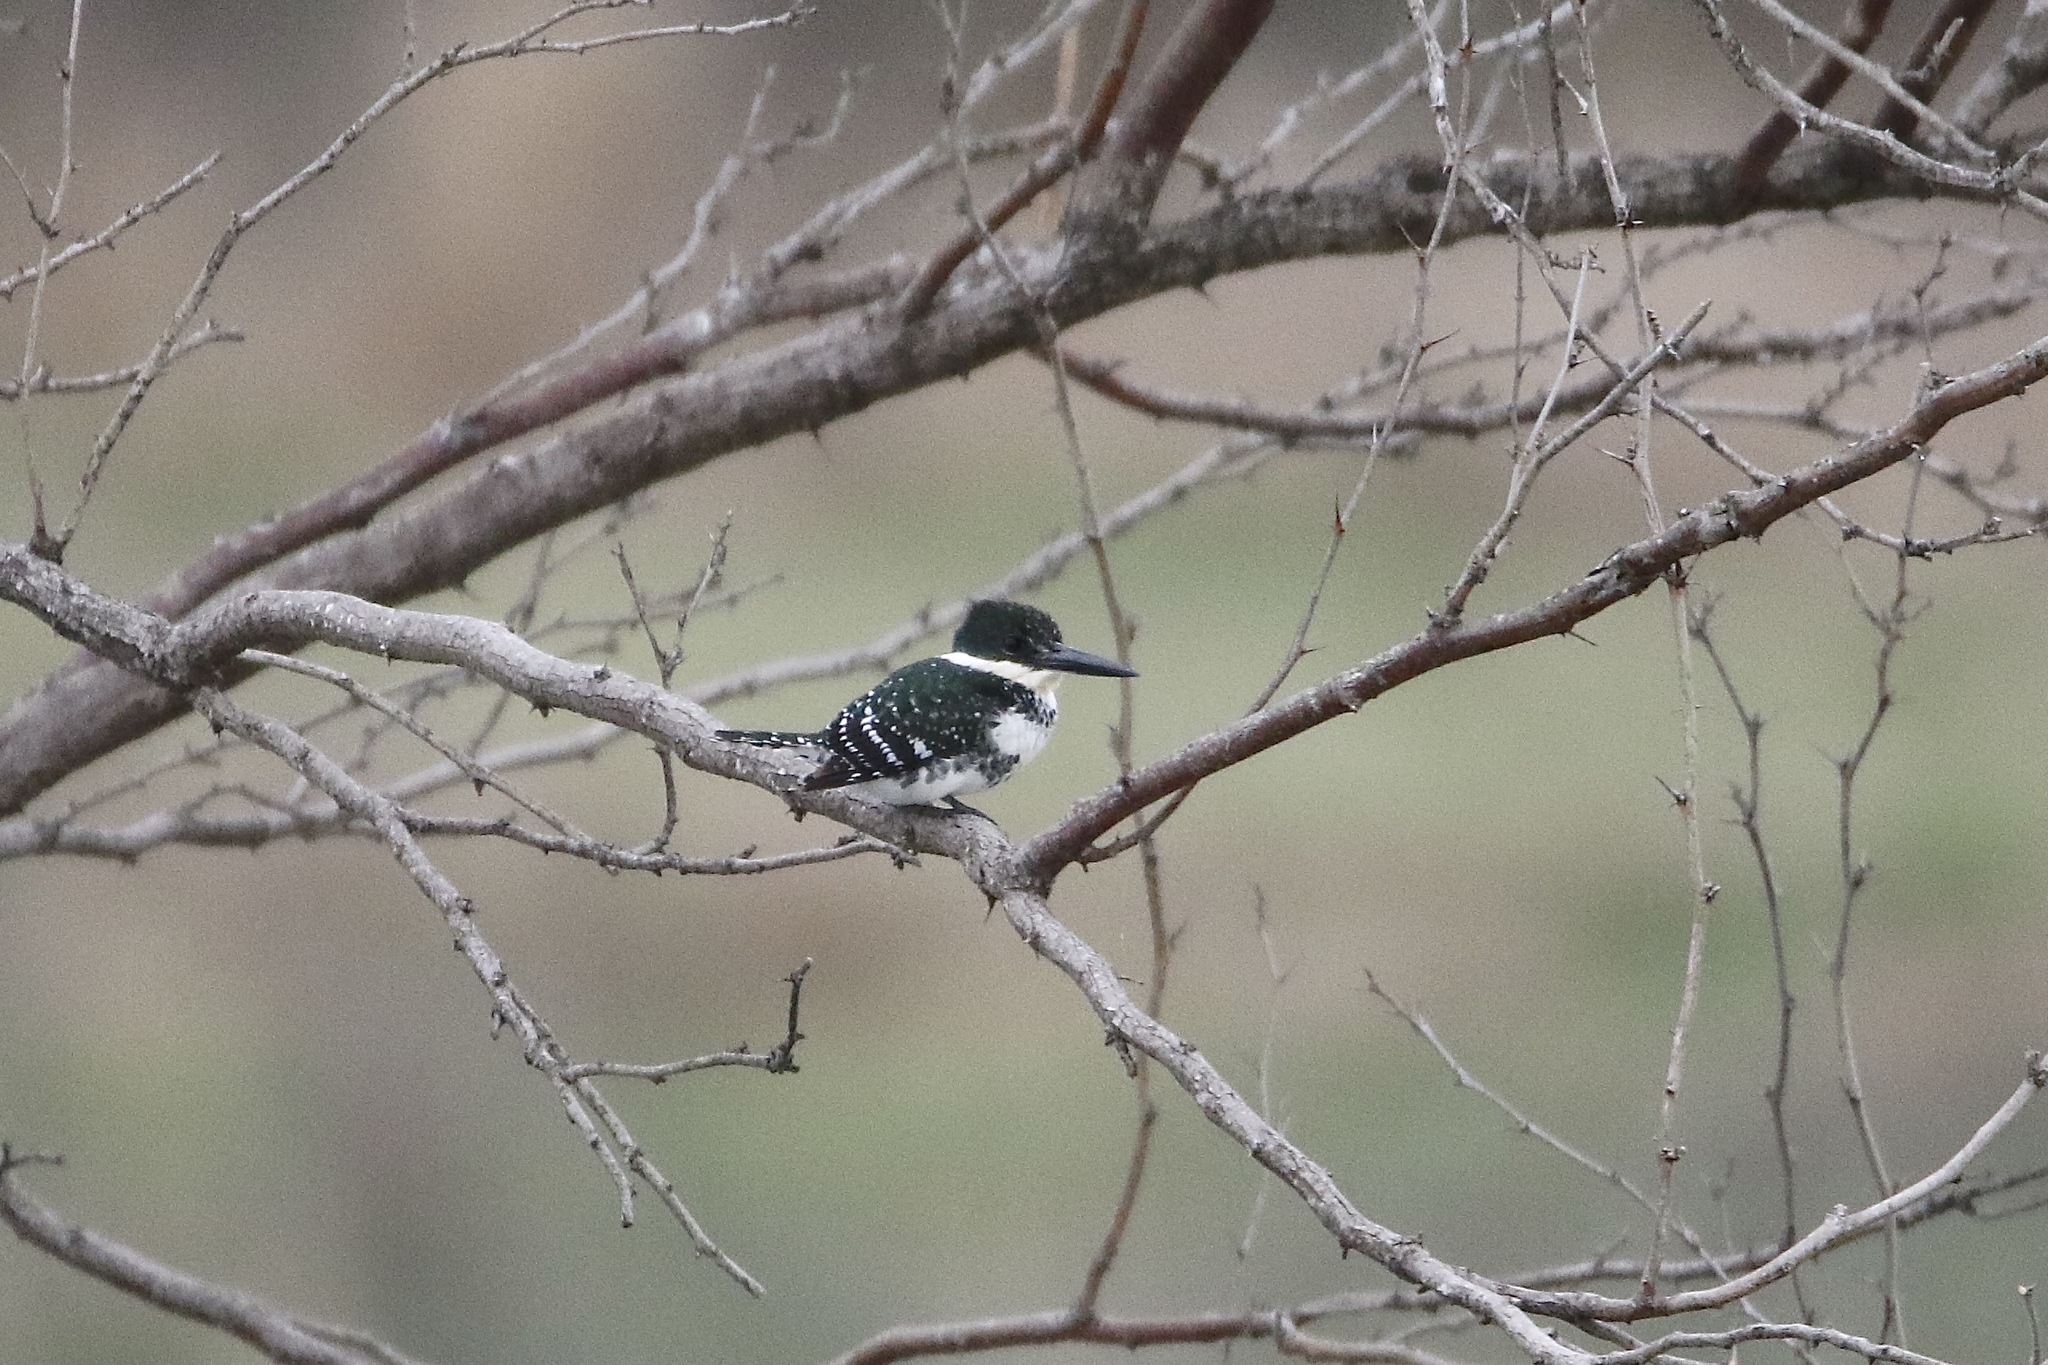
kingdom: Animalia
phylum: Chordata
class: Aves
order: Coraciiformes
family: Alcedinidae
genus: Chloroceryle
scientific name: Chloroceryle americana
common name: Green kingfisher
